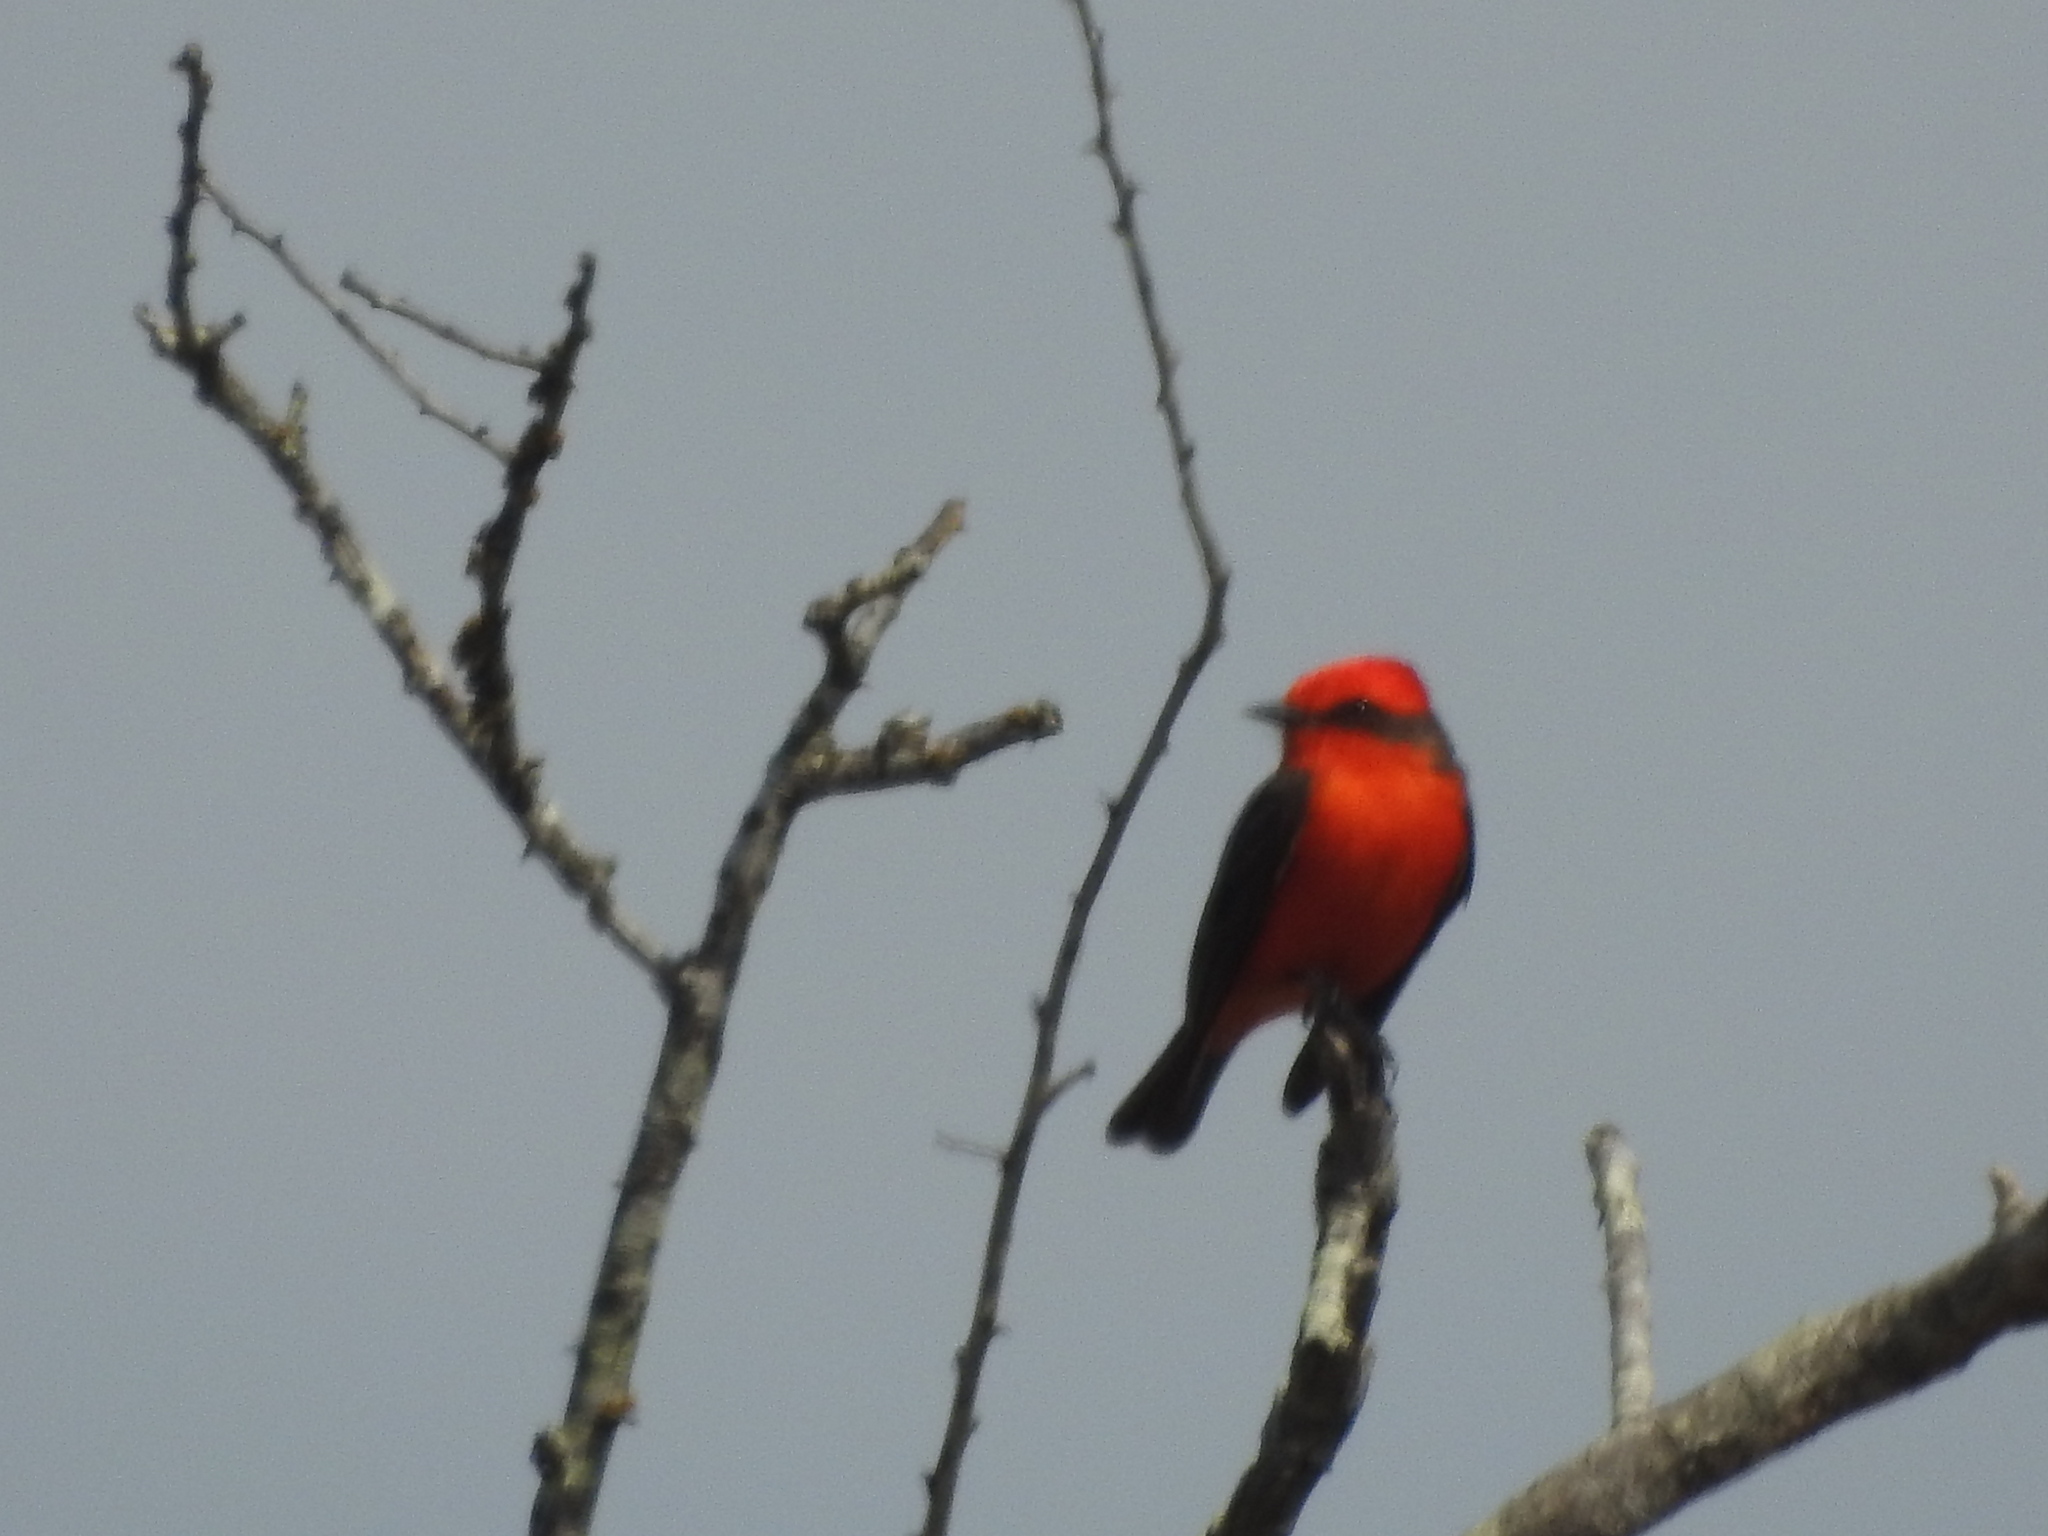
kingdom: Animalia
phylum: Chordata
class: Aves
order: Passeriformes
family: Tyrannidae
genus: Pyrocephalus
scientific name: Pyrocephalus rubinus
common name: Vermilion flycatcher
